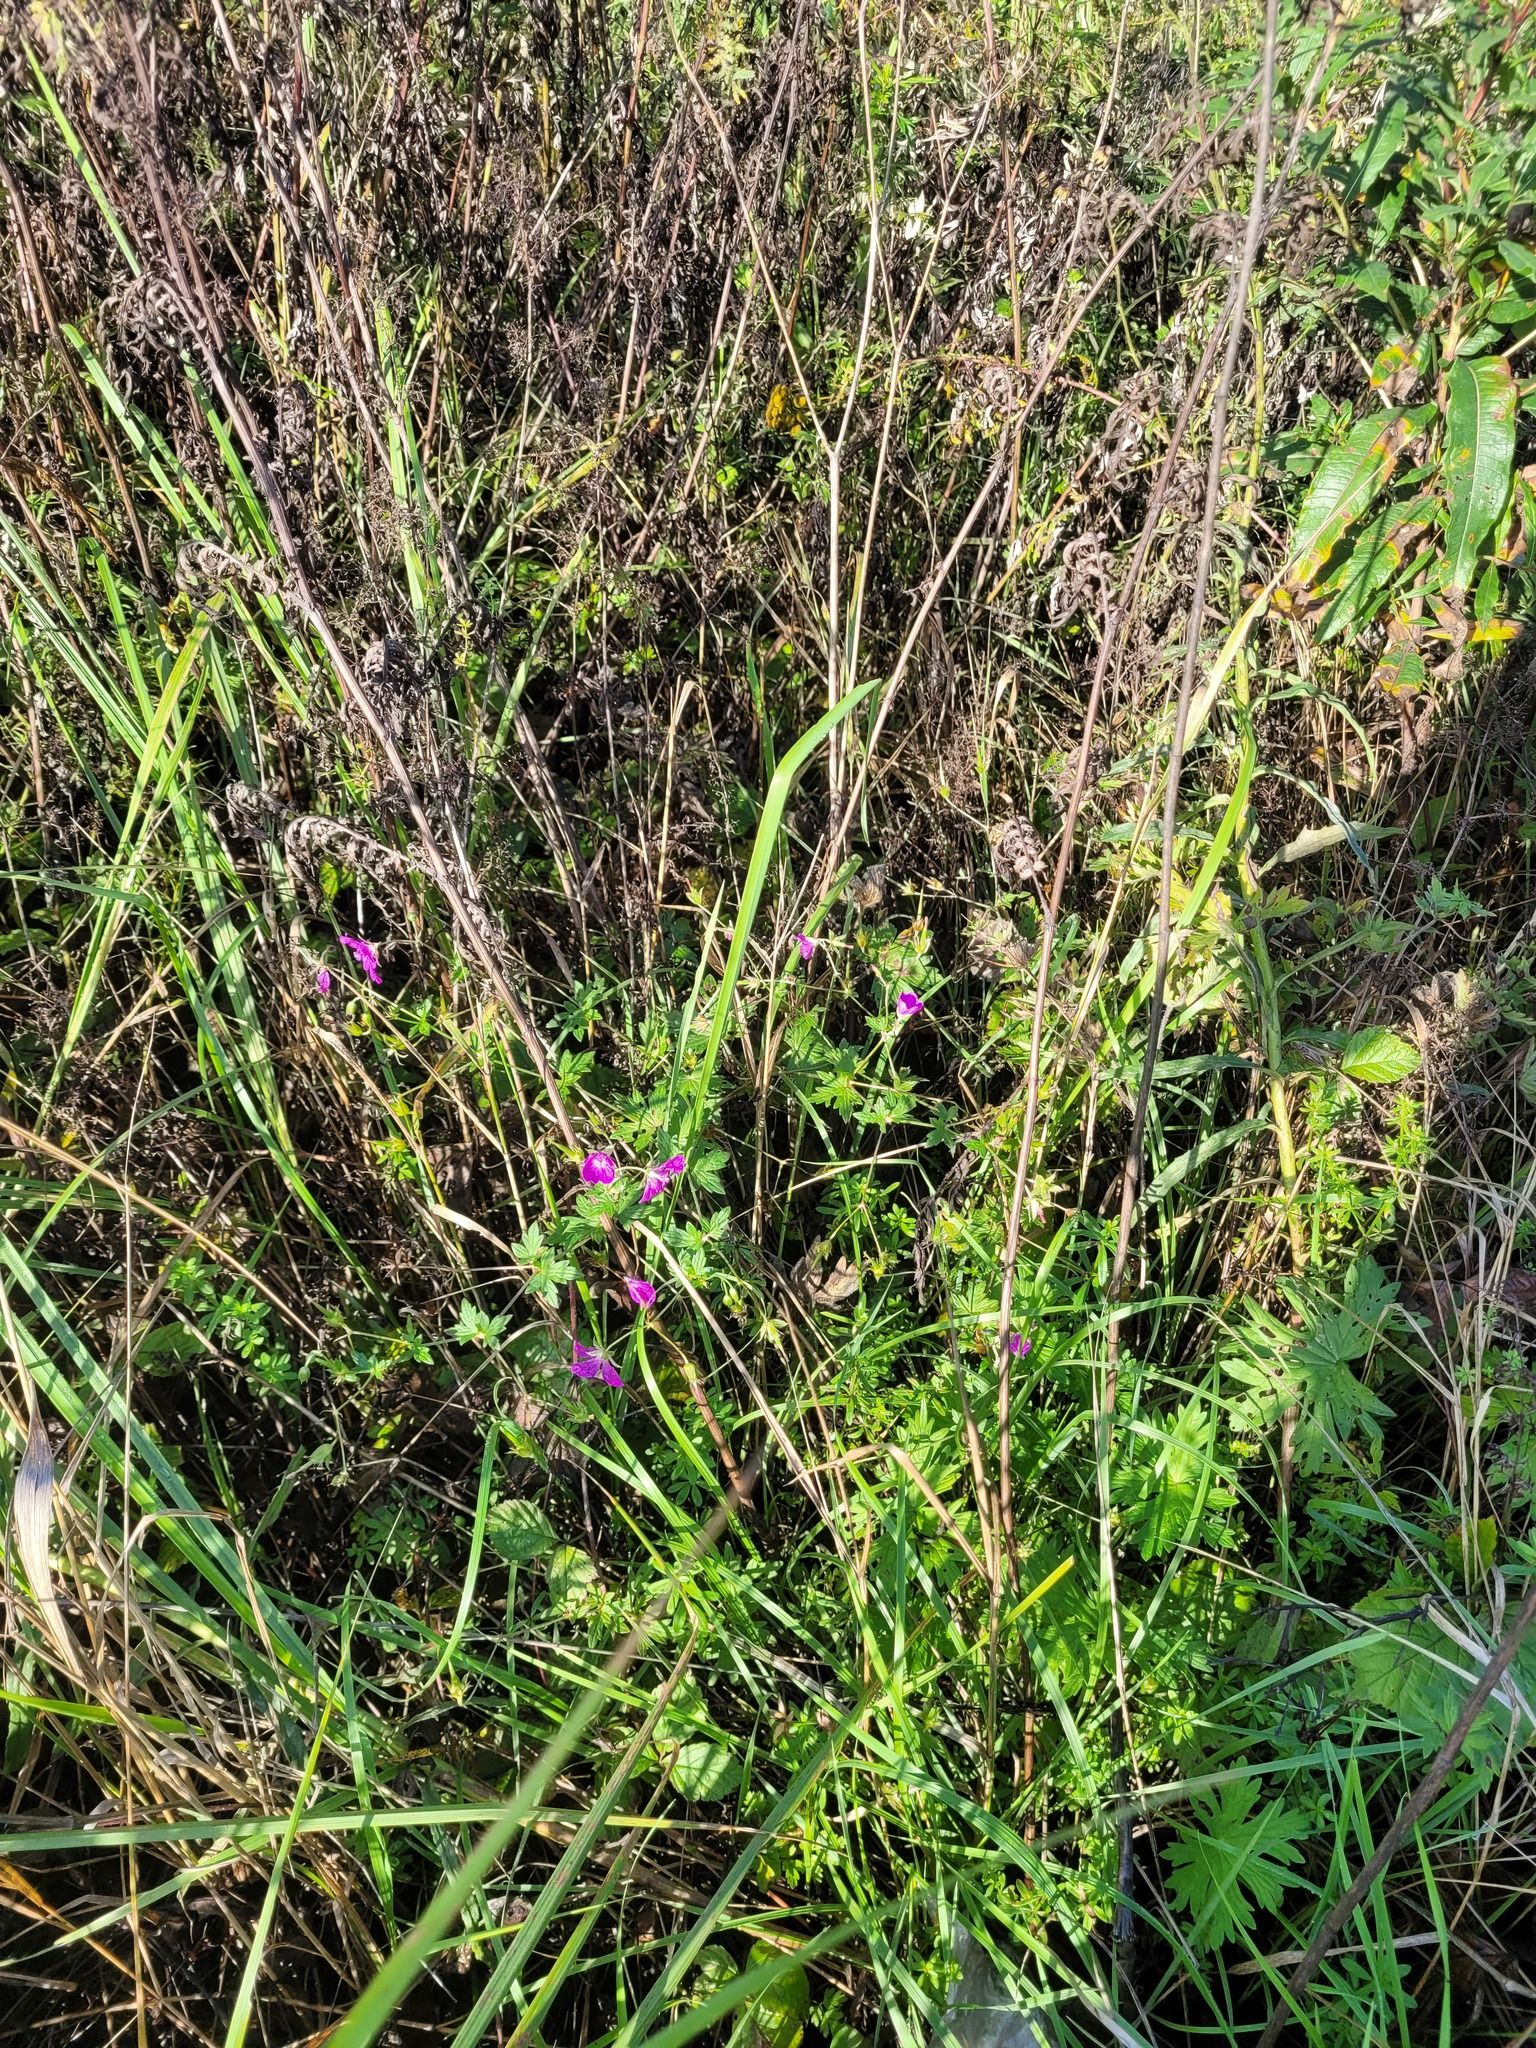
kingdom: Plantae
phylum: Tracheophyta
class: Magnoliopsida
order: Geraniales
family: Geraniaceae
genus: Geranium
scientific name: Geranium palustre
